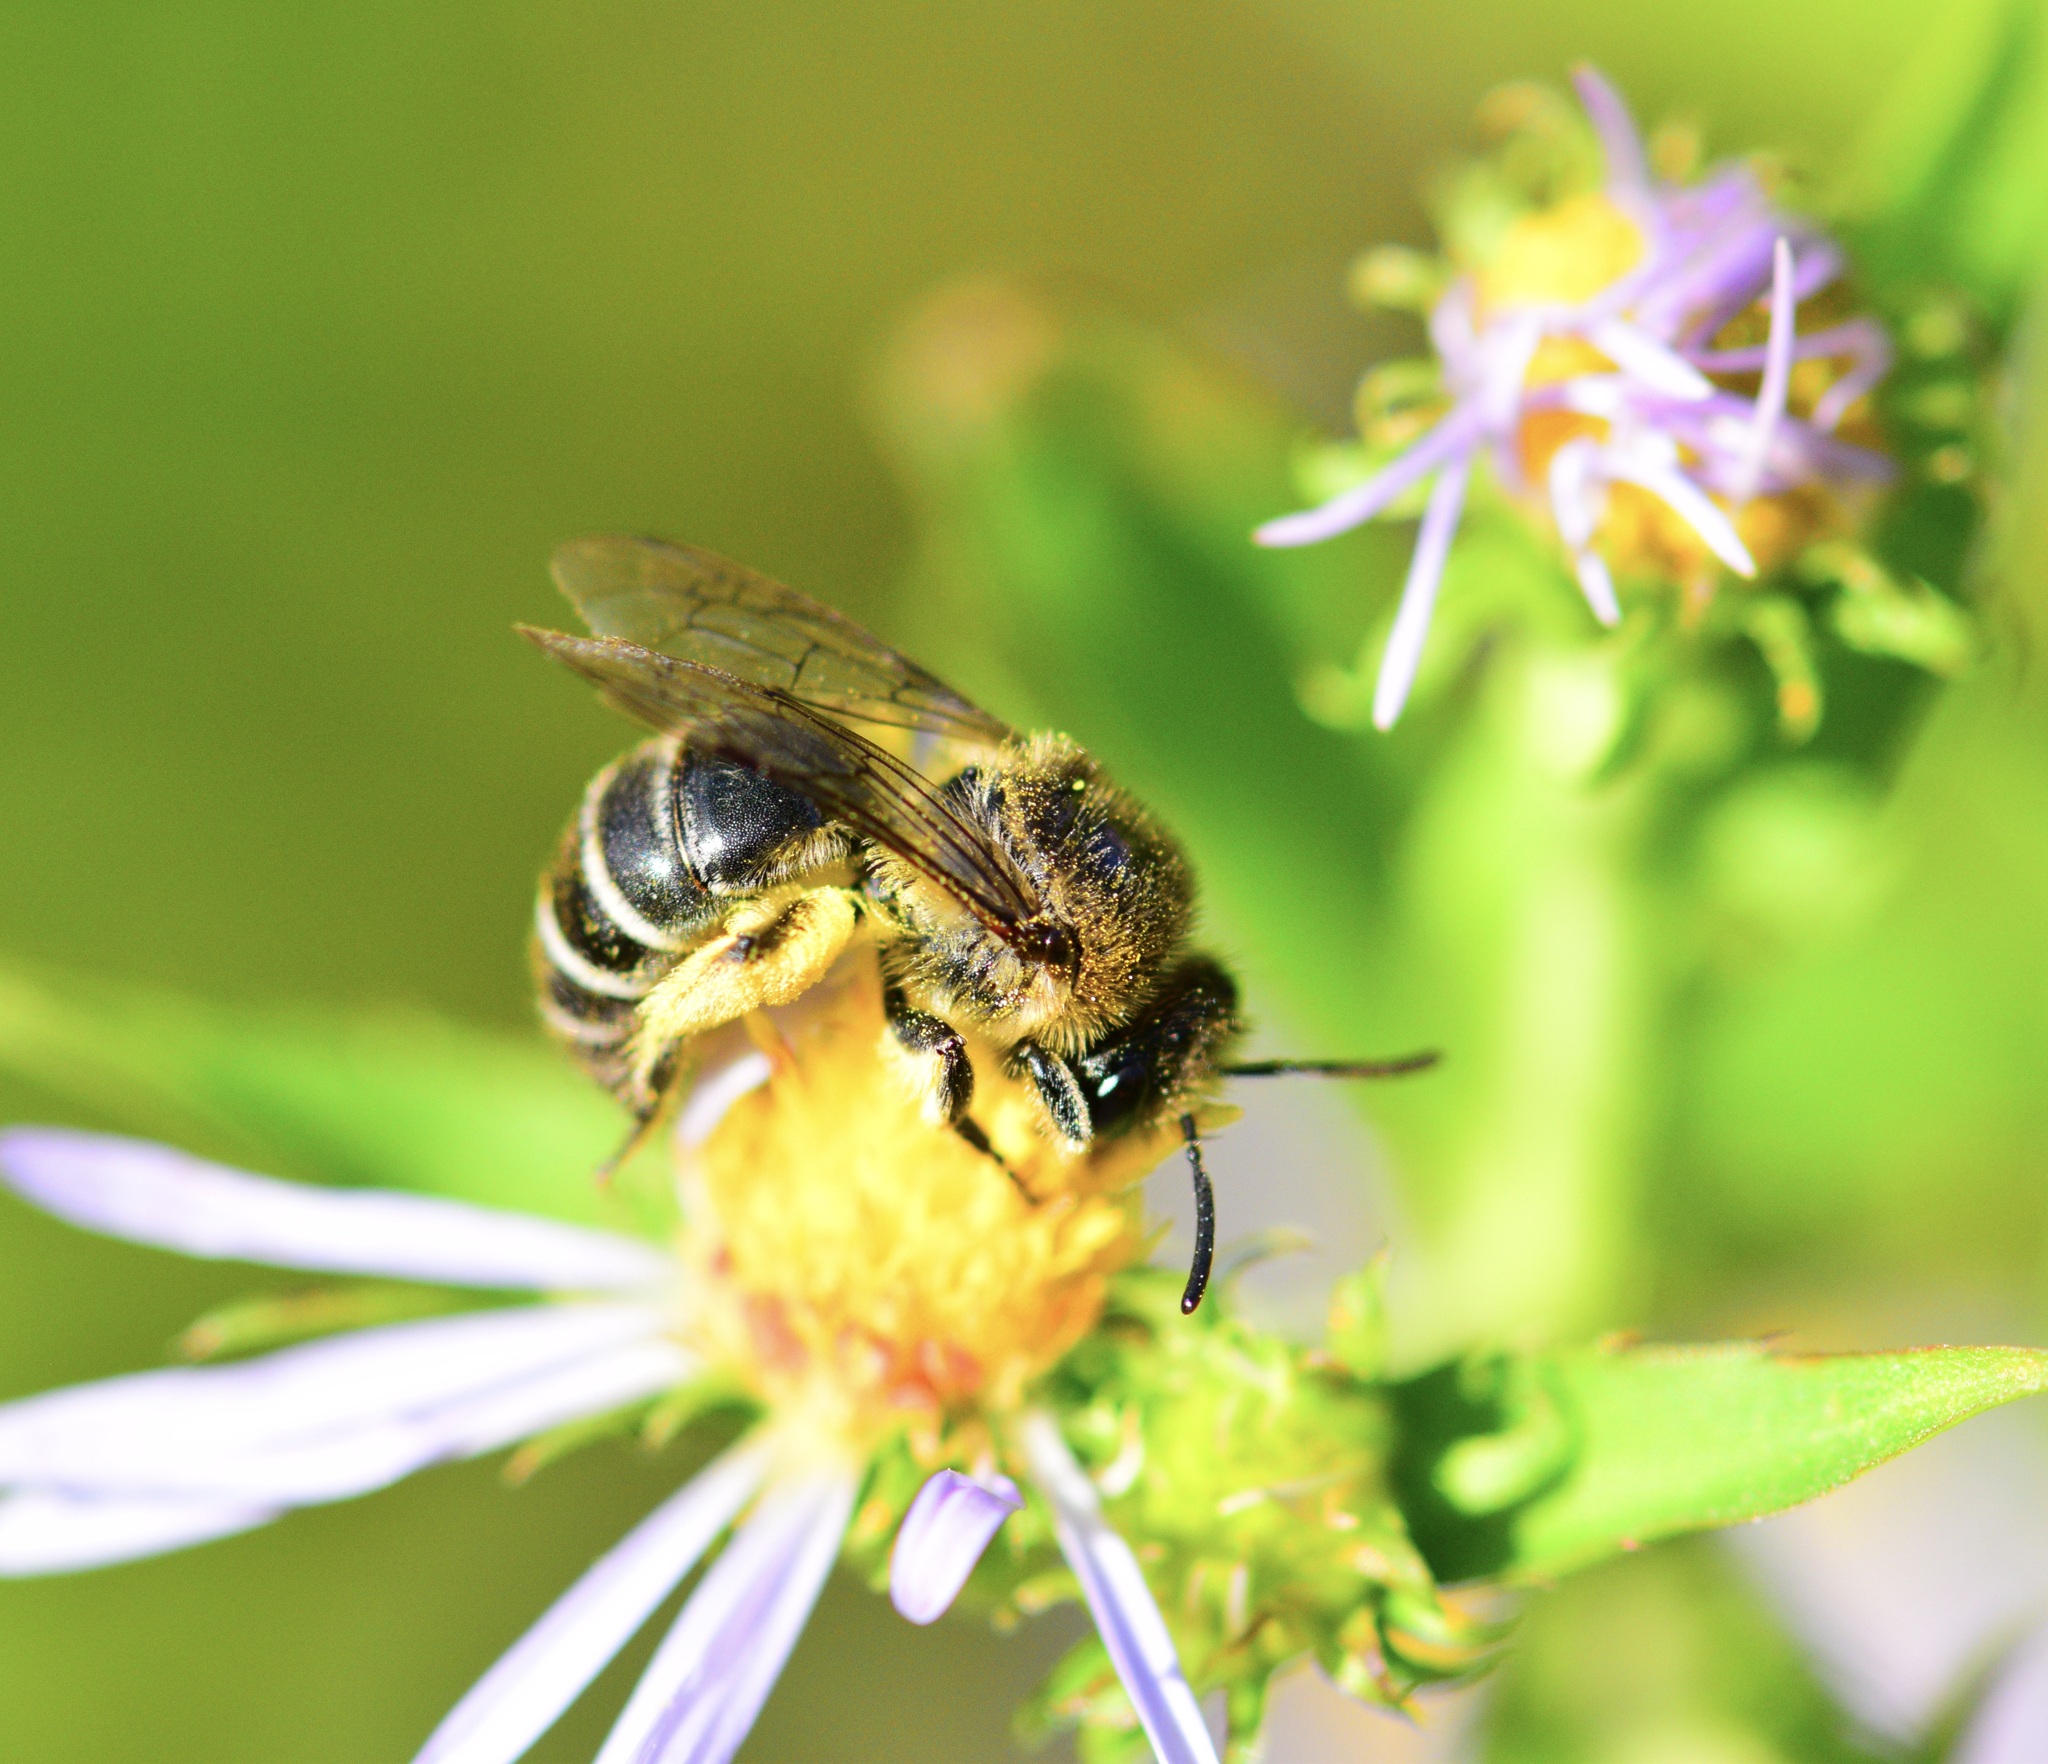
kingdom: Animalia
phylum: Arthropoda
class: Insecta
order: Hymenoptera
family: Colletidae
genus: Colletes
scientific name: Colletes compactus
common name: Aster cellophane bee
